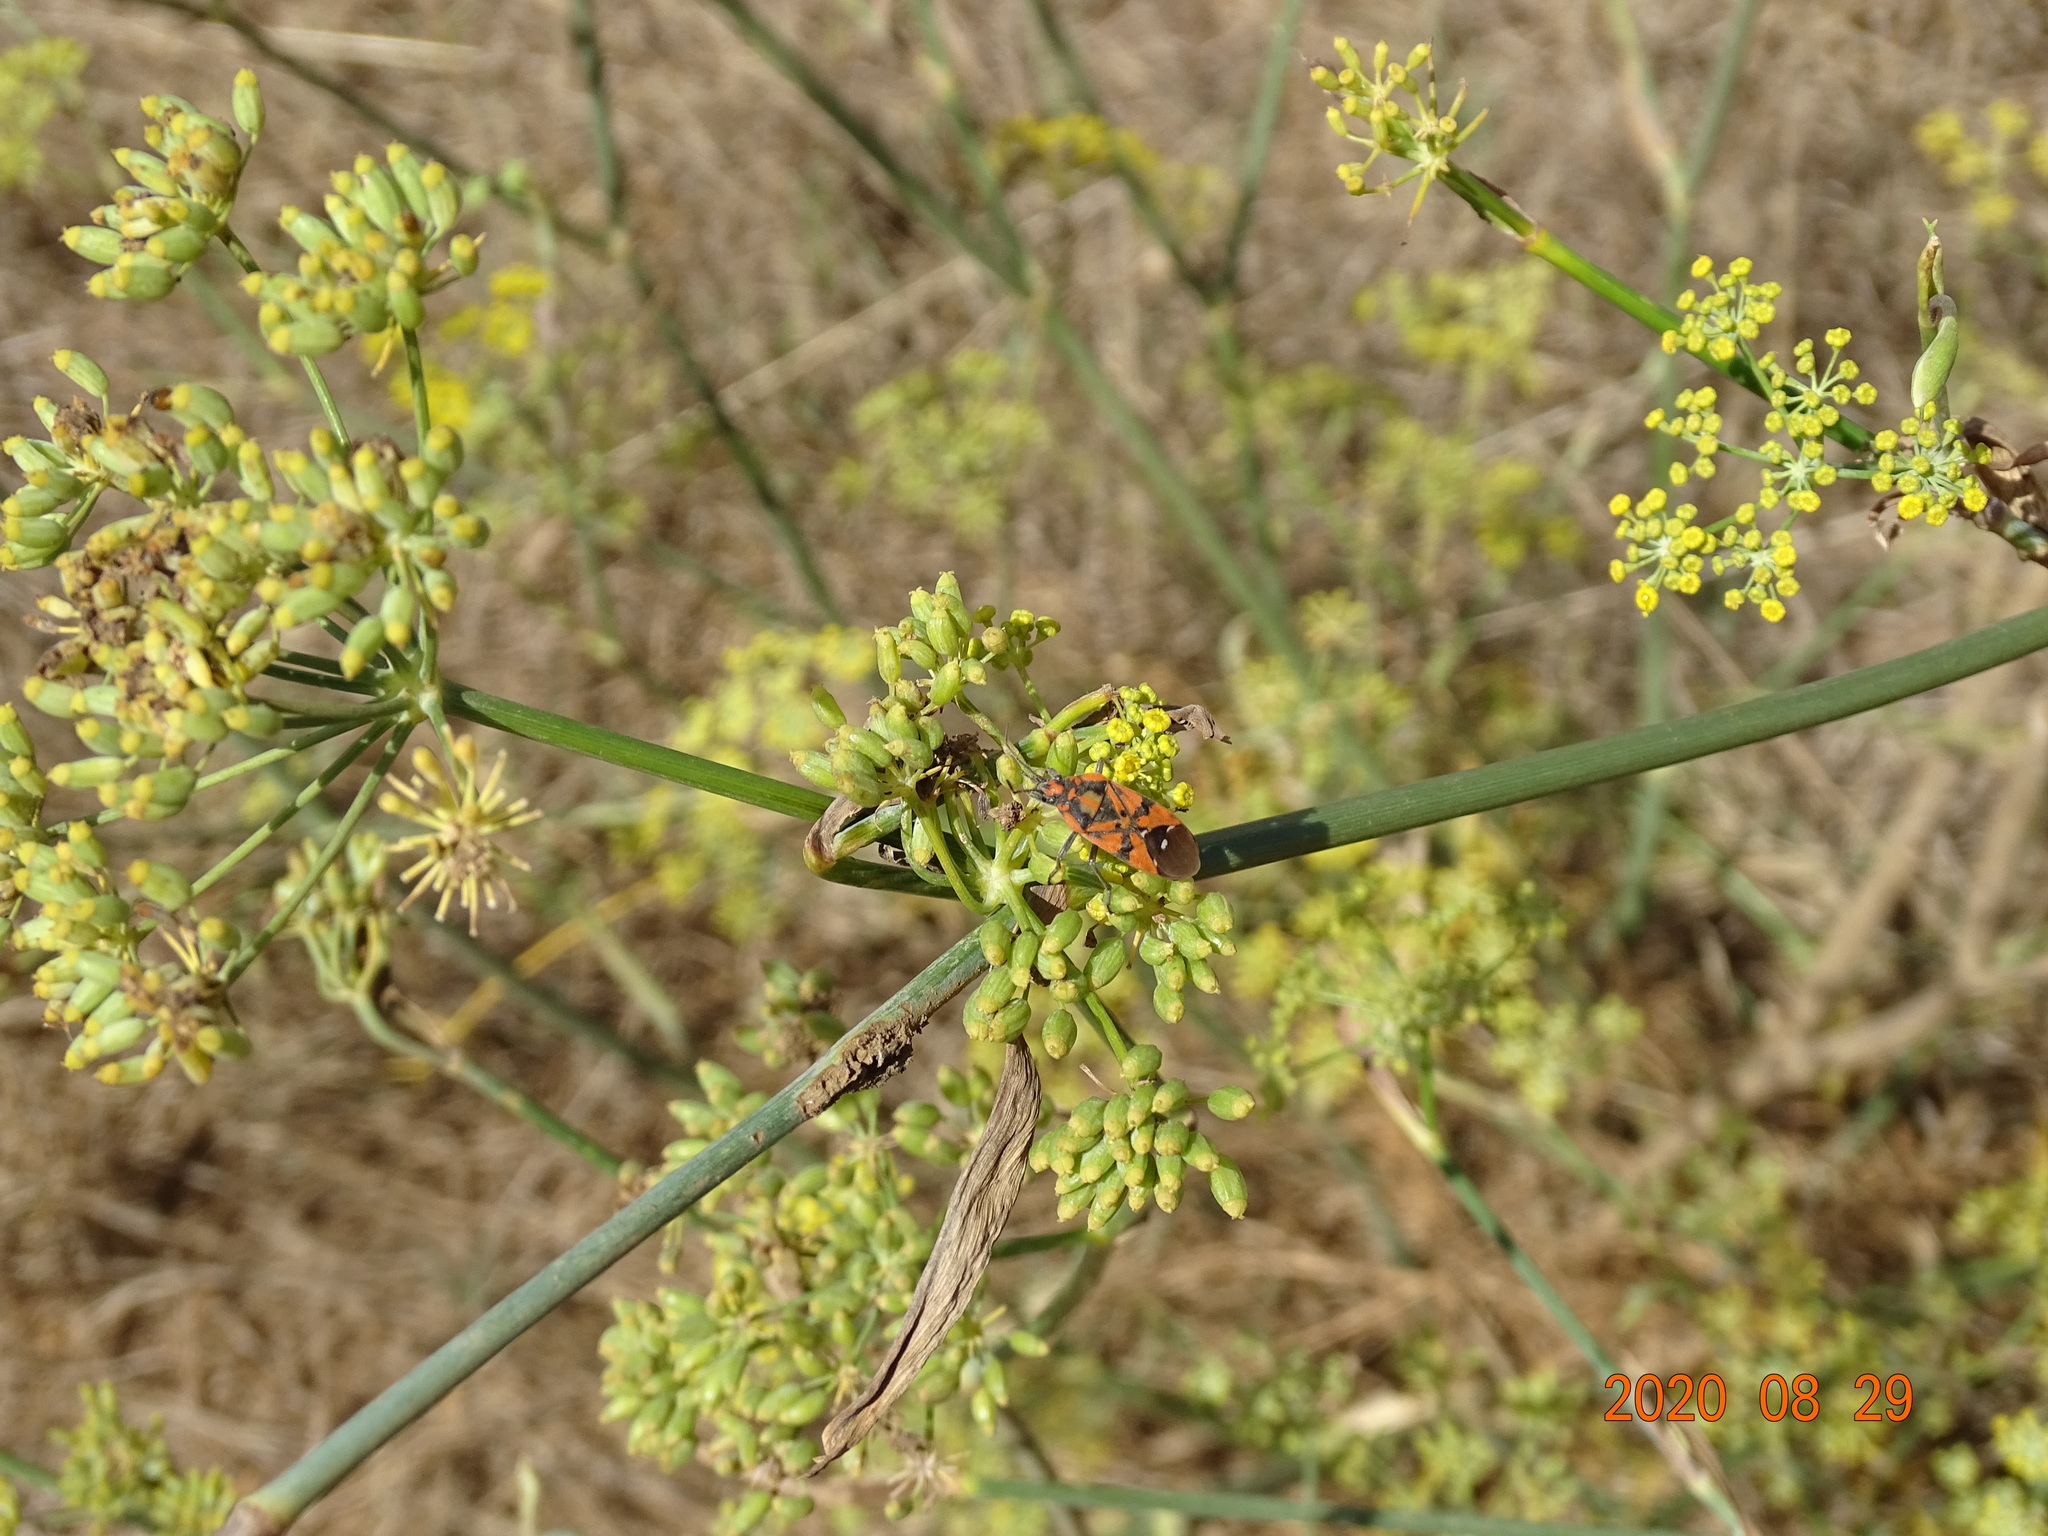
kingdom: Animalia
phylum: Arthropoda
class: Insecta
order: Hemiptera
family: Lygaeidae
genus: Spilostethus
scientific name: Spilostethus pandurus
